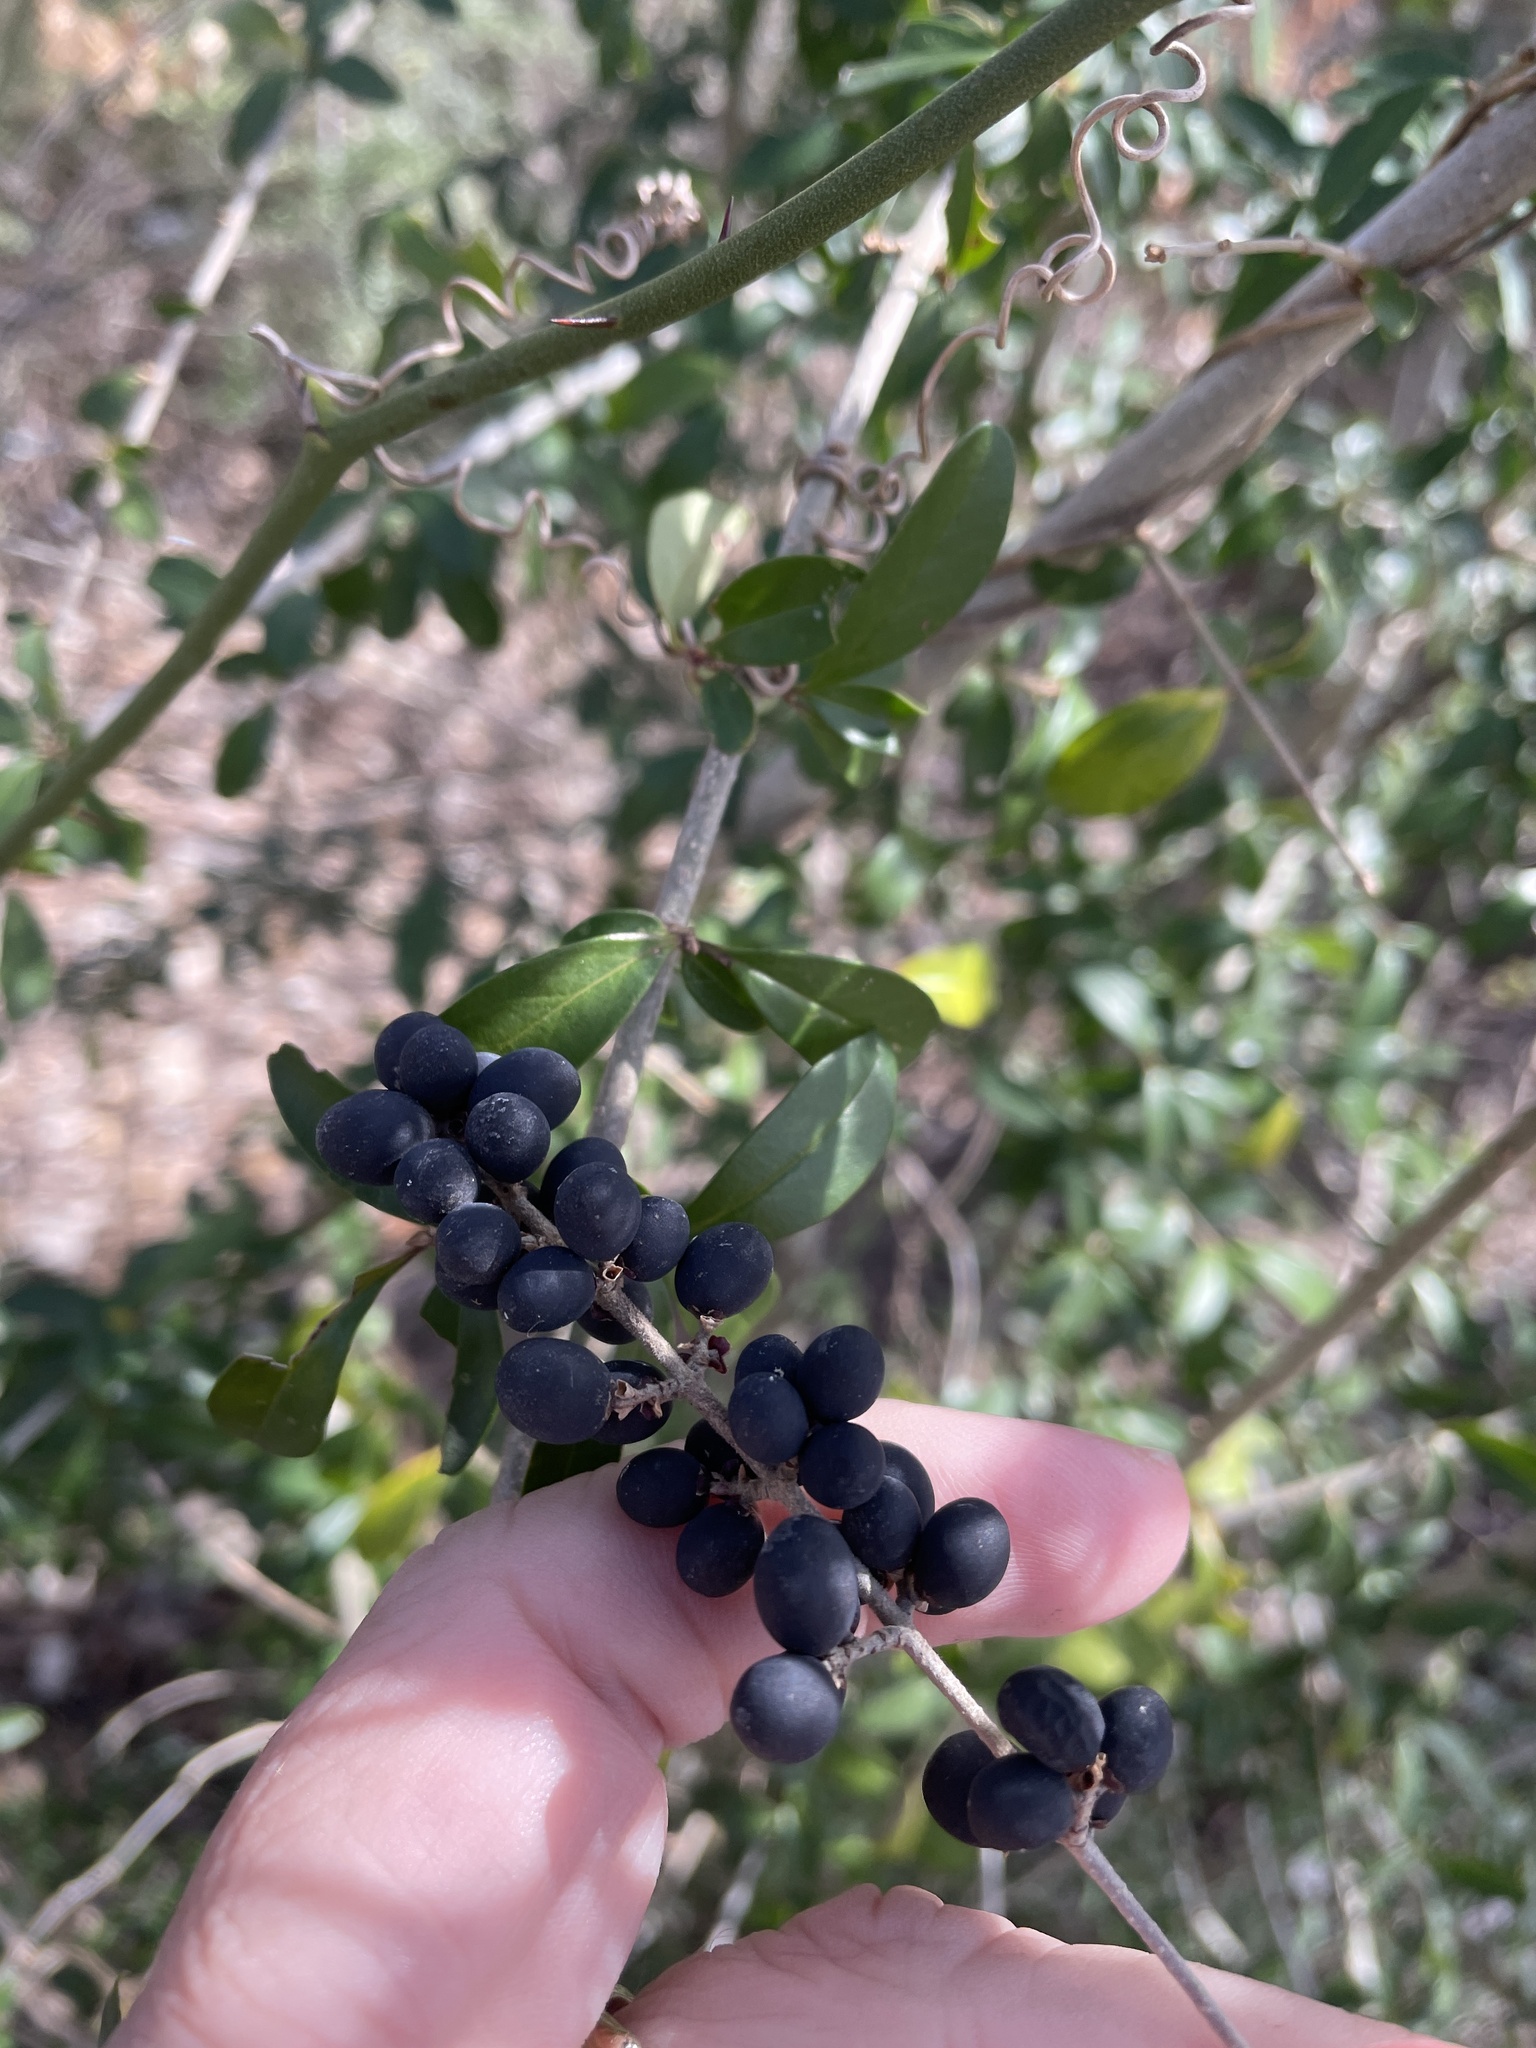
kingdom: Plantae
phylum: Tracheophyta
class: Magnoliopsida
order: Lamiales
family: Oleaceae
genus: Ligustrum
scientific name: Ligustrum quihoui
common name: Waxyleaf privet
